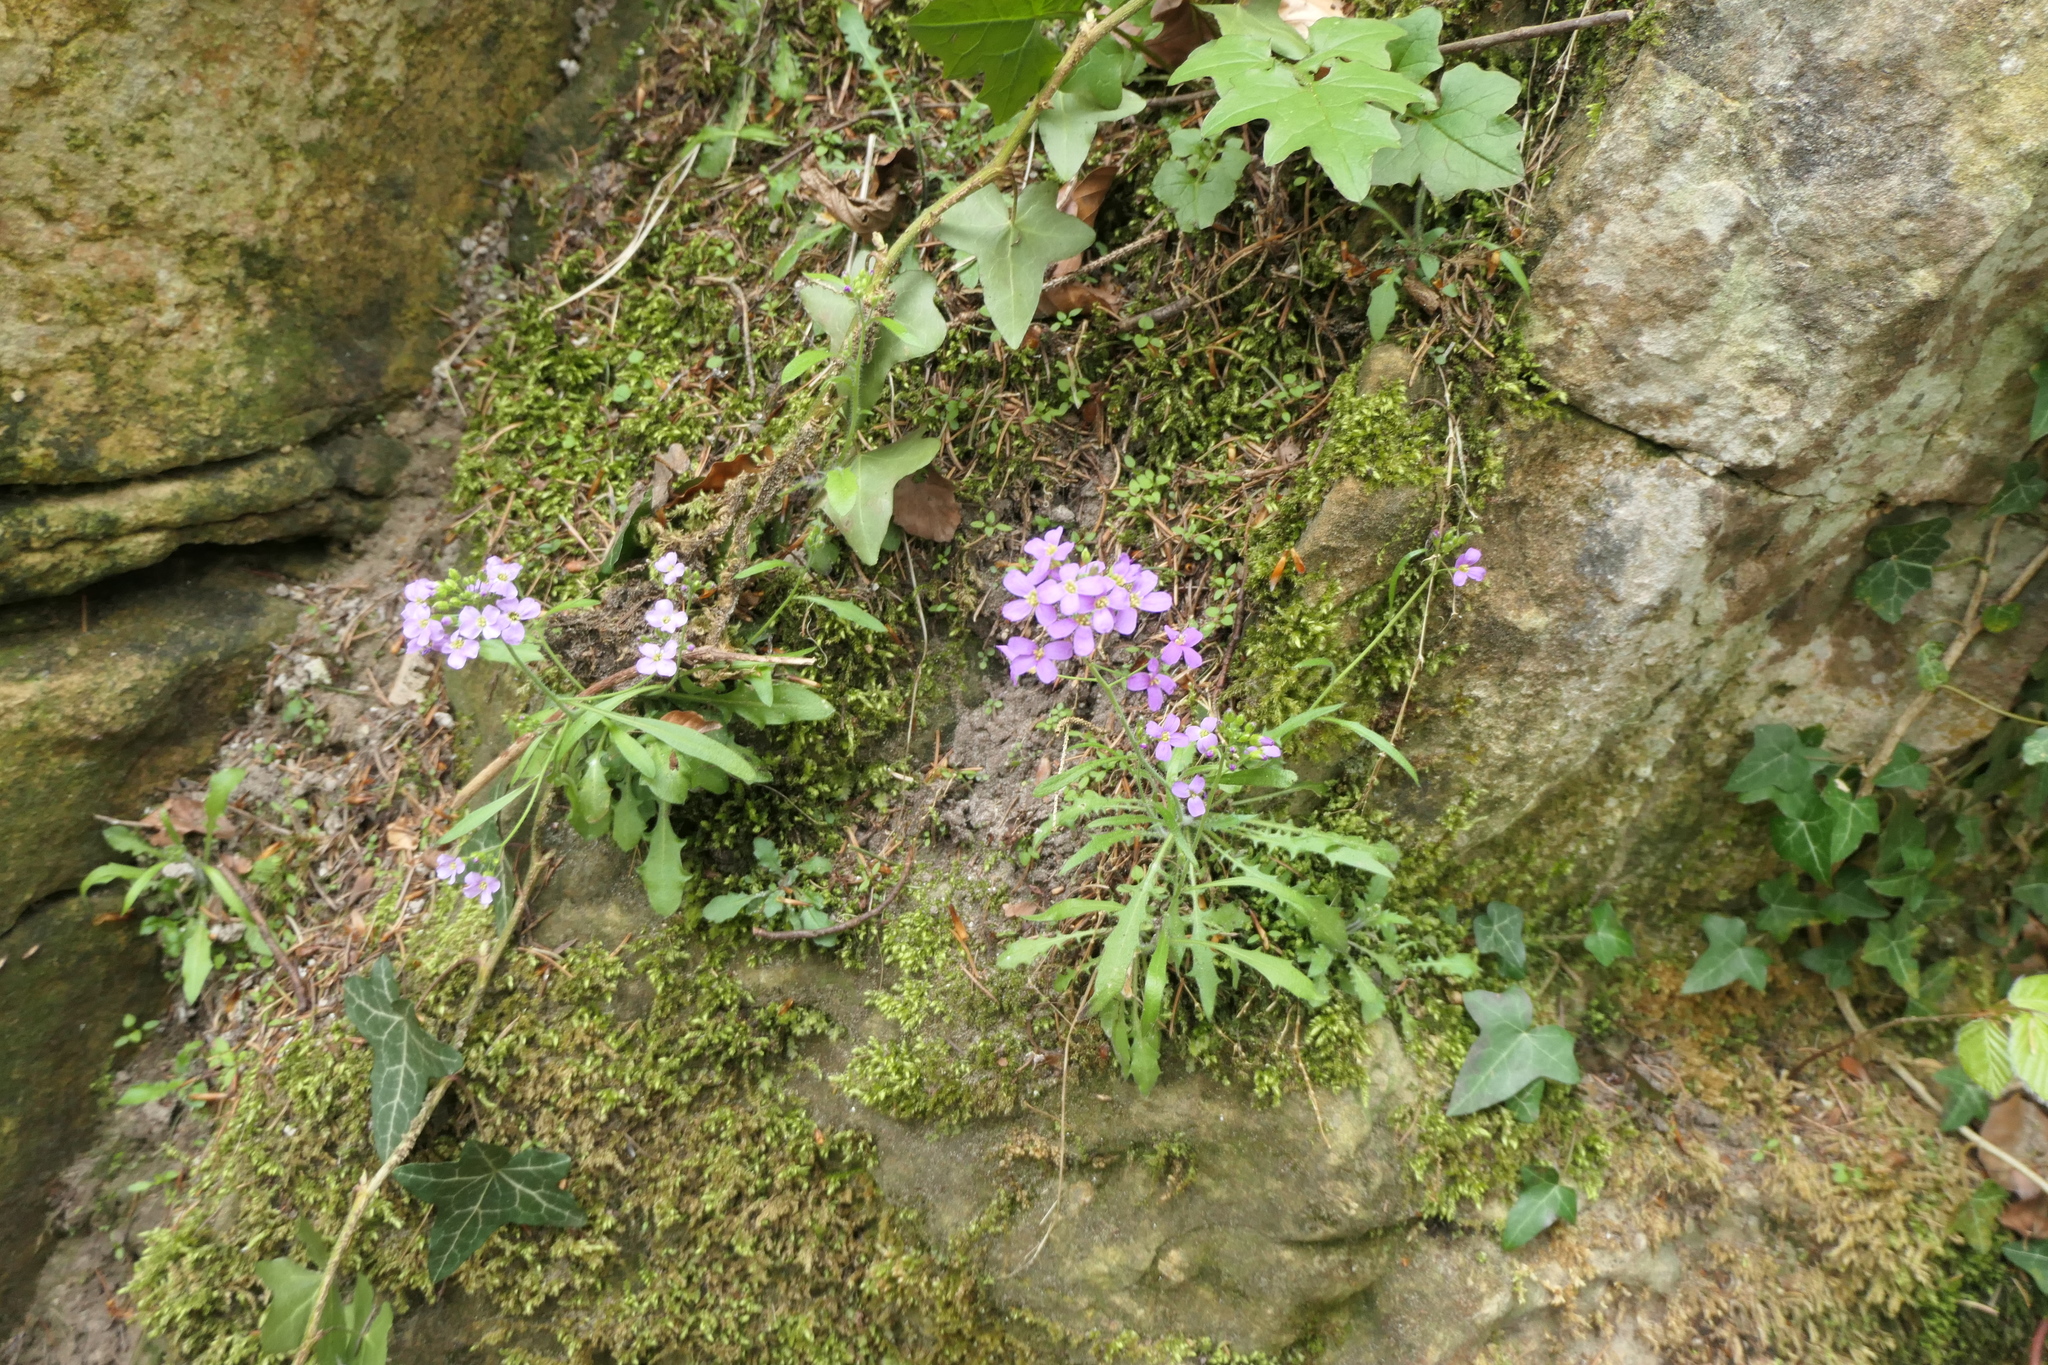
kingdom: Plantae
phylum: Tracheophyta
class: Magnoliopsida
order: Brassicales
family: Brassicaceae
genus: Arabidopsis
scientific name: Arabidopsis arenosa
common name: Sand rock-cress
